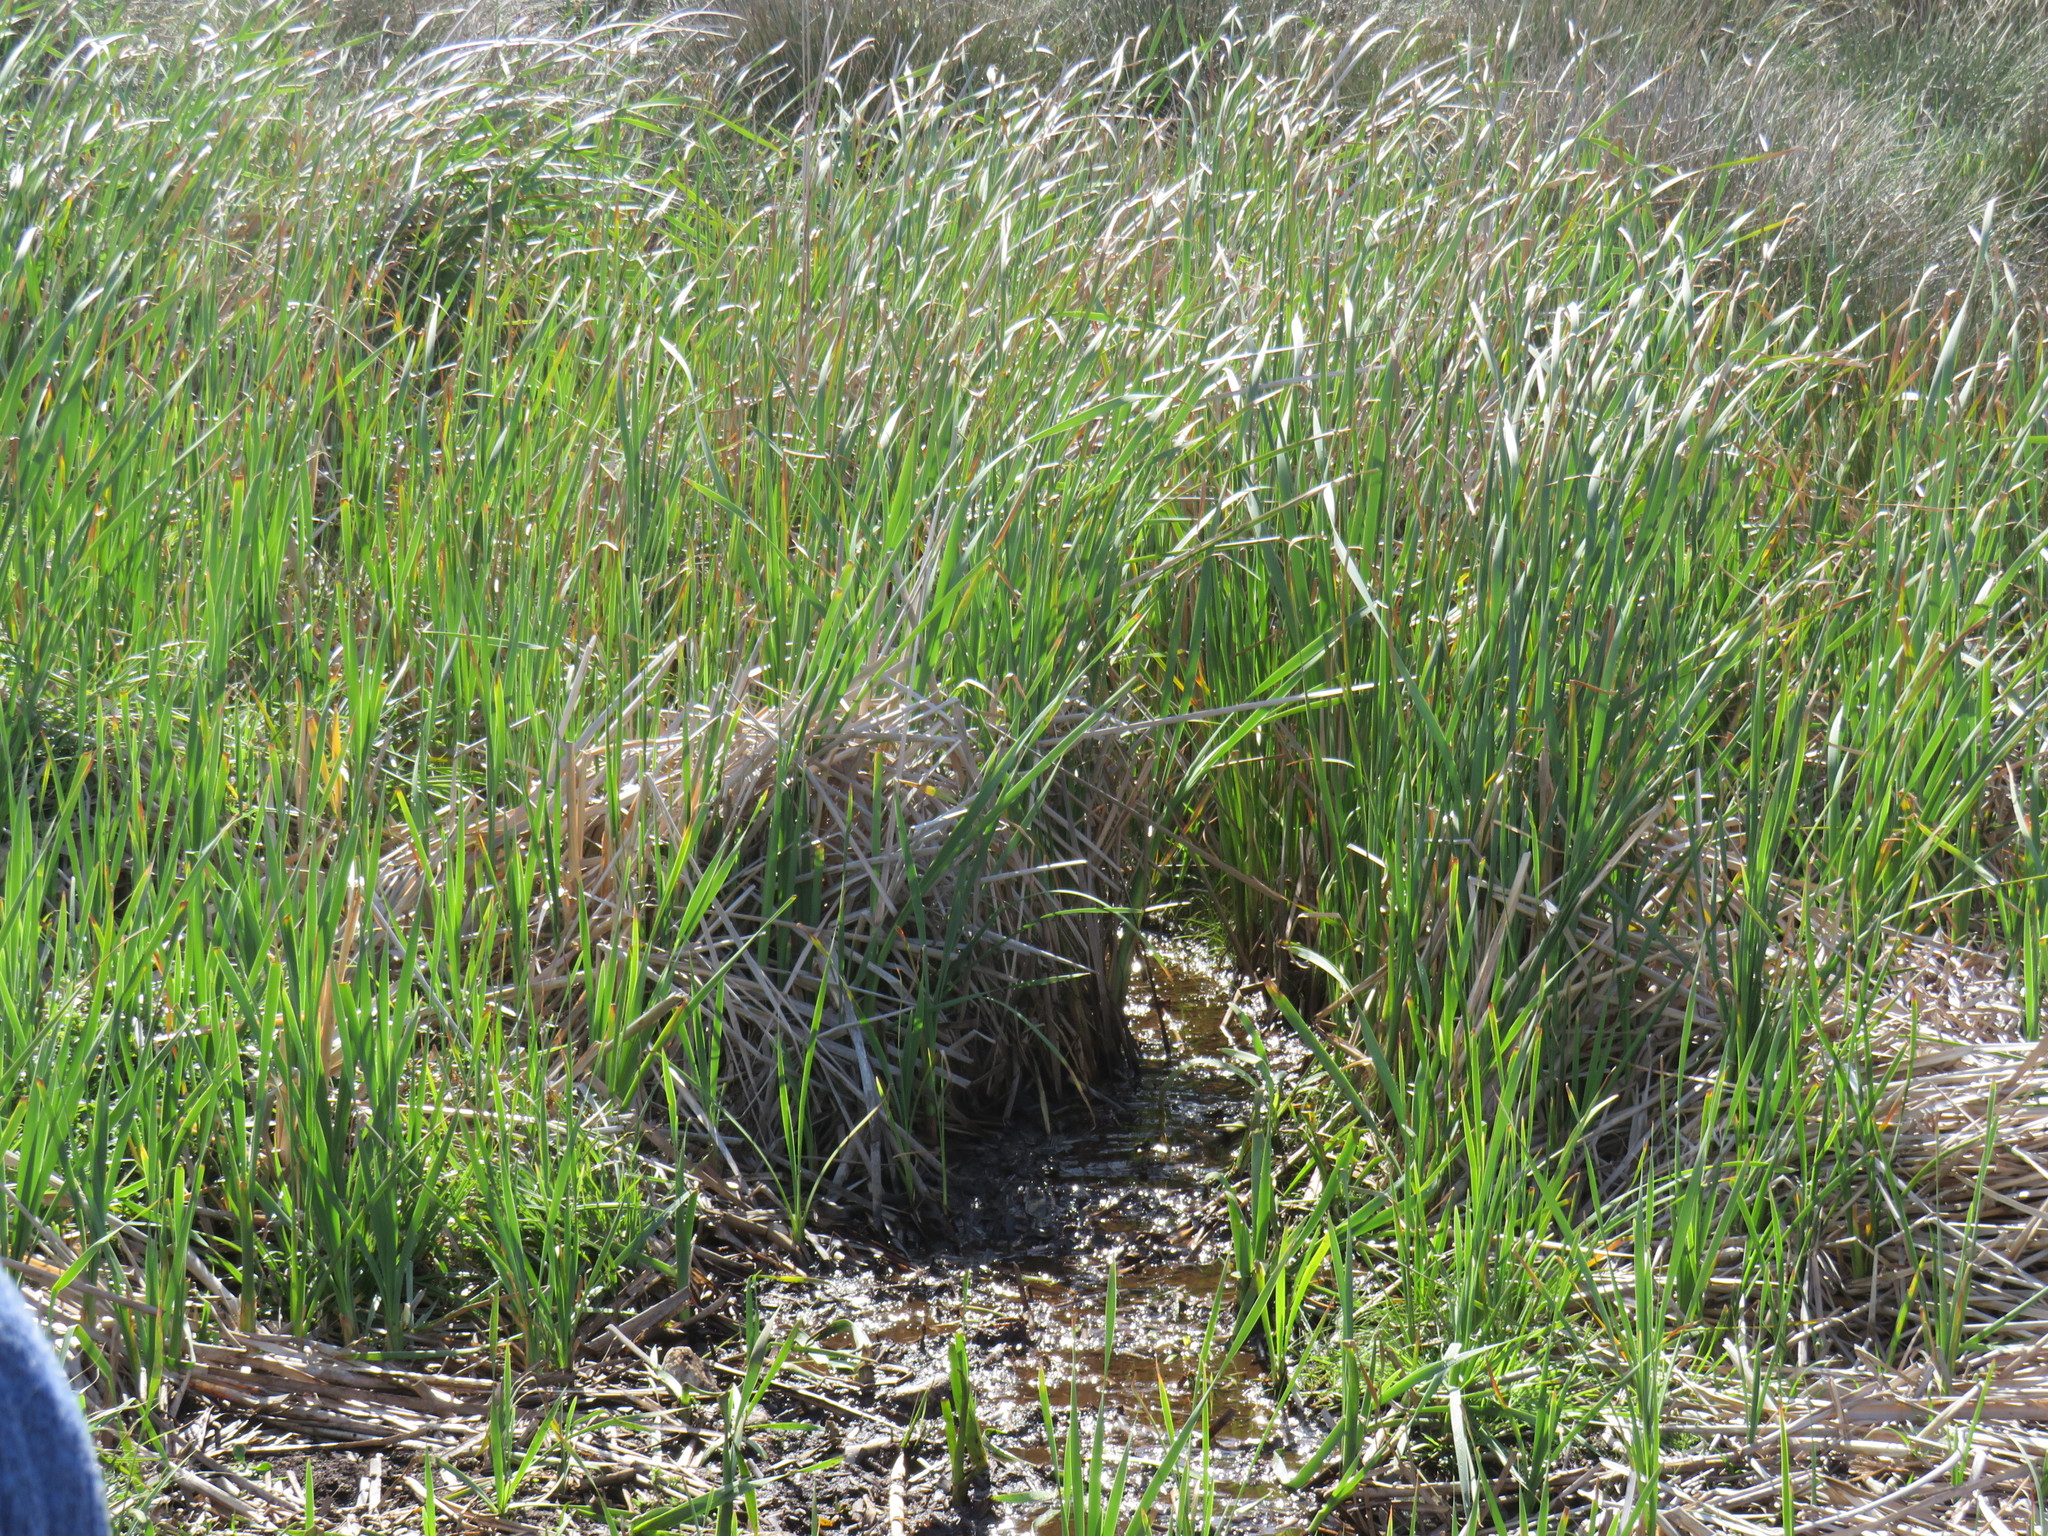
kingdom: Plantae
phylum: Tracheophyta
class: Liliopsida
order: Poales
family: Typhaceae
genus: Typha
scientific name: Typha capensis
